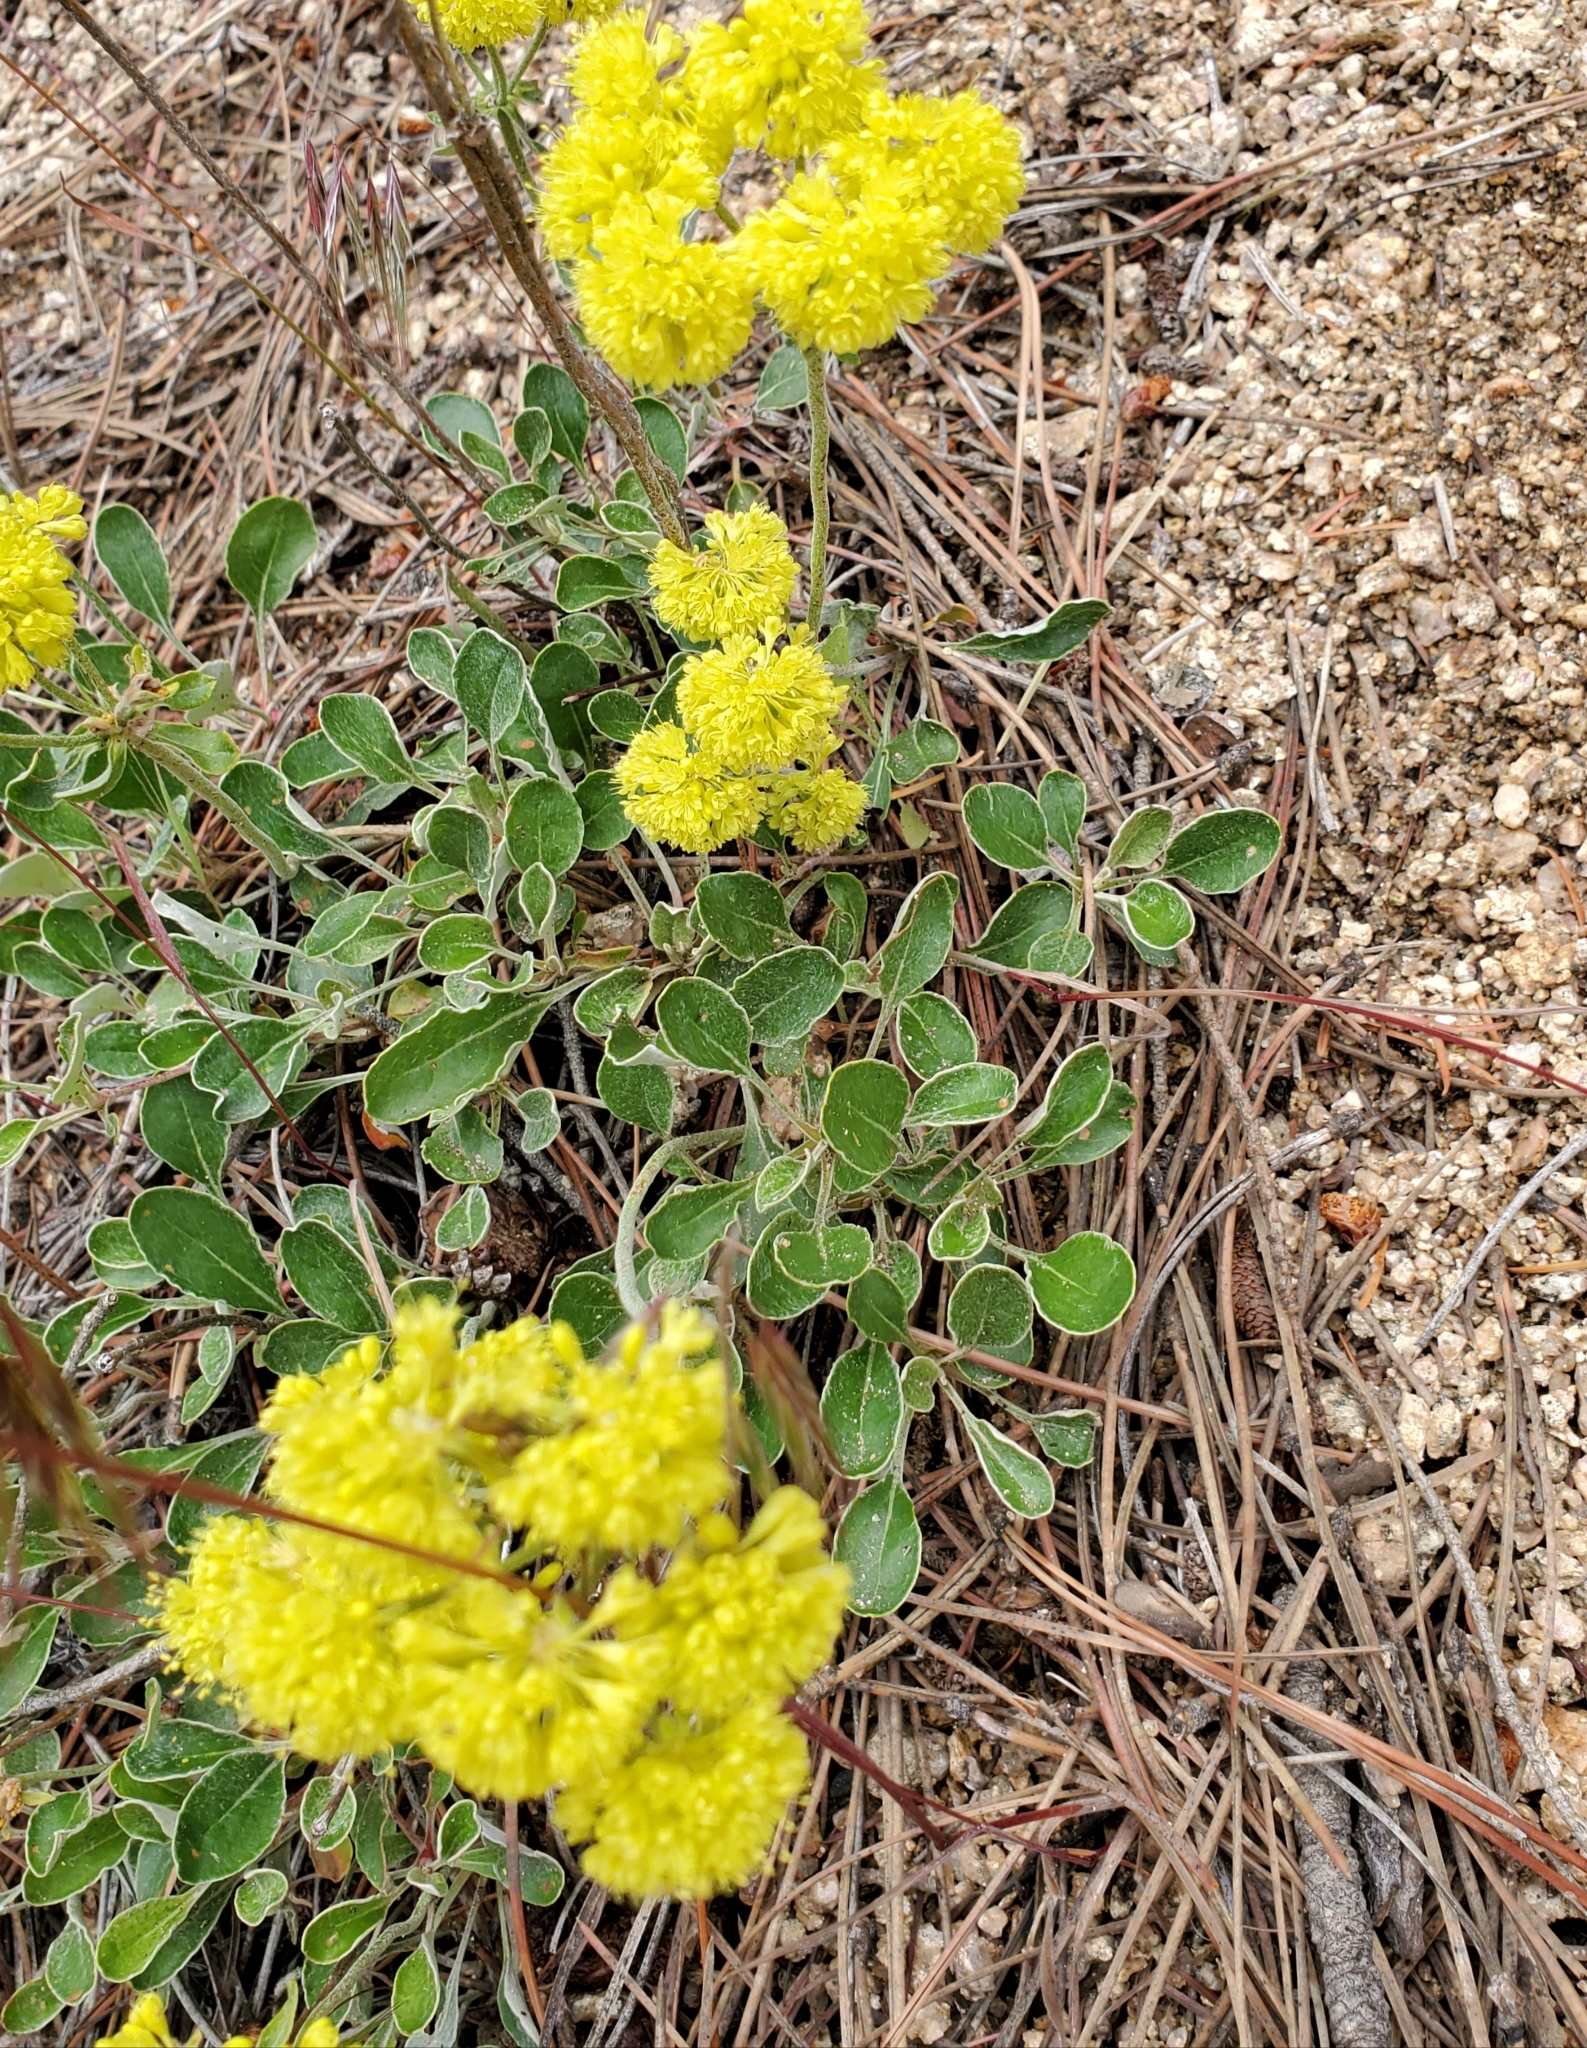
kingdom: Plantae
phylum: Tracheophyta
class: Magnoliopsida
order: Caryophyllales
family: Polygonaceae
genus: Eriogonum
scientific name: Eriogonum umbellatum
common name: Sulfur-buckwheat
